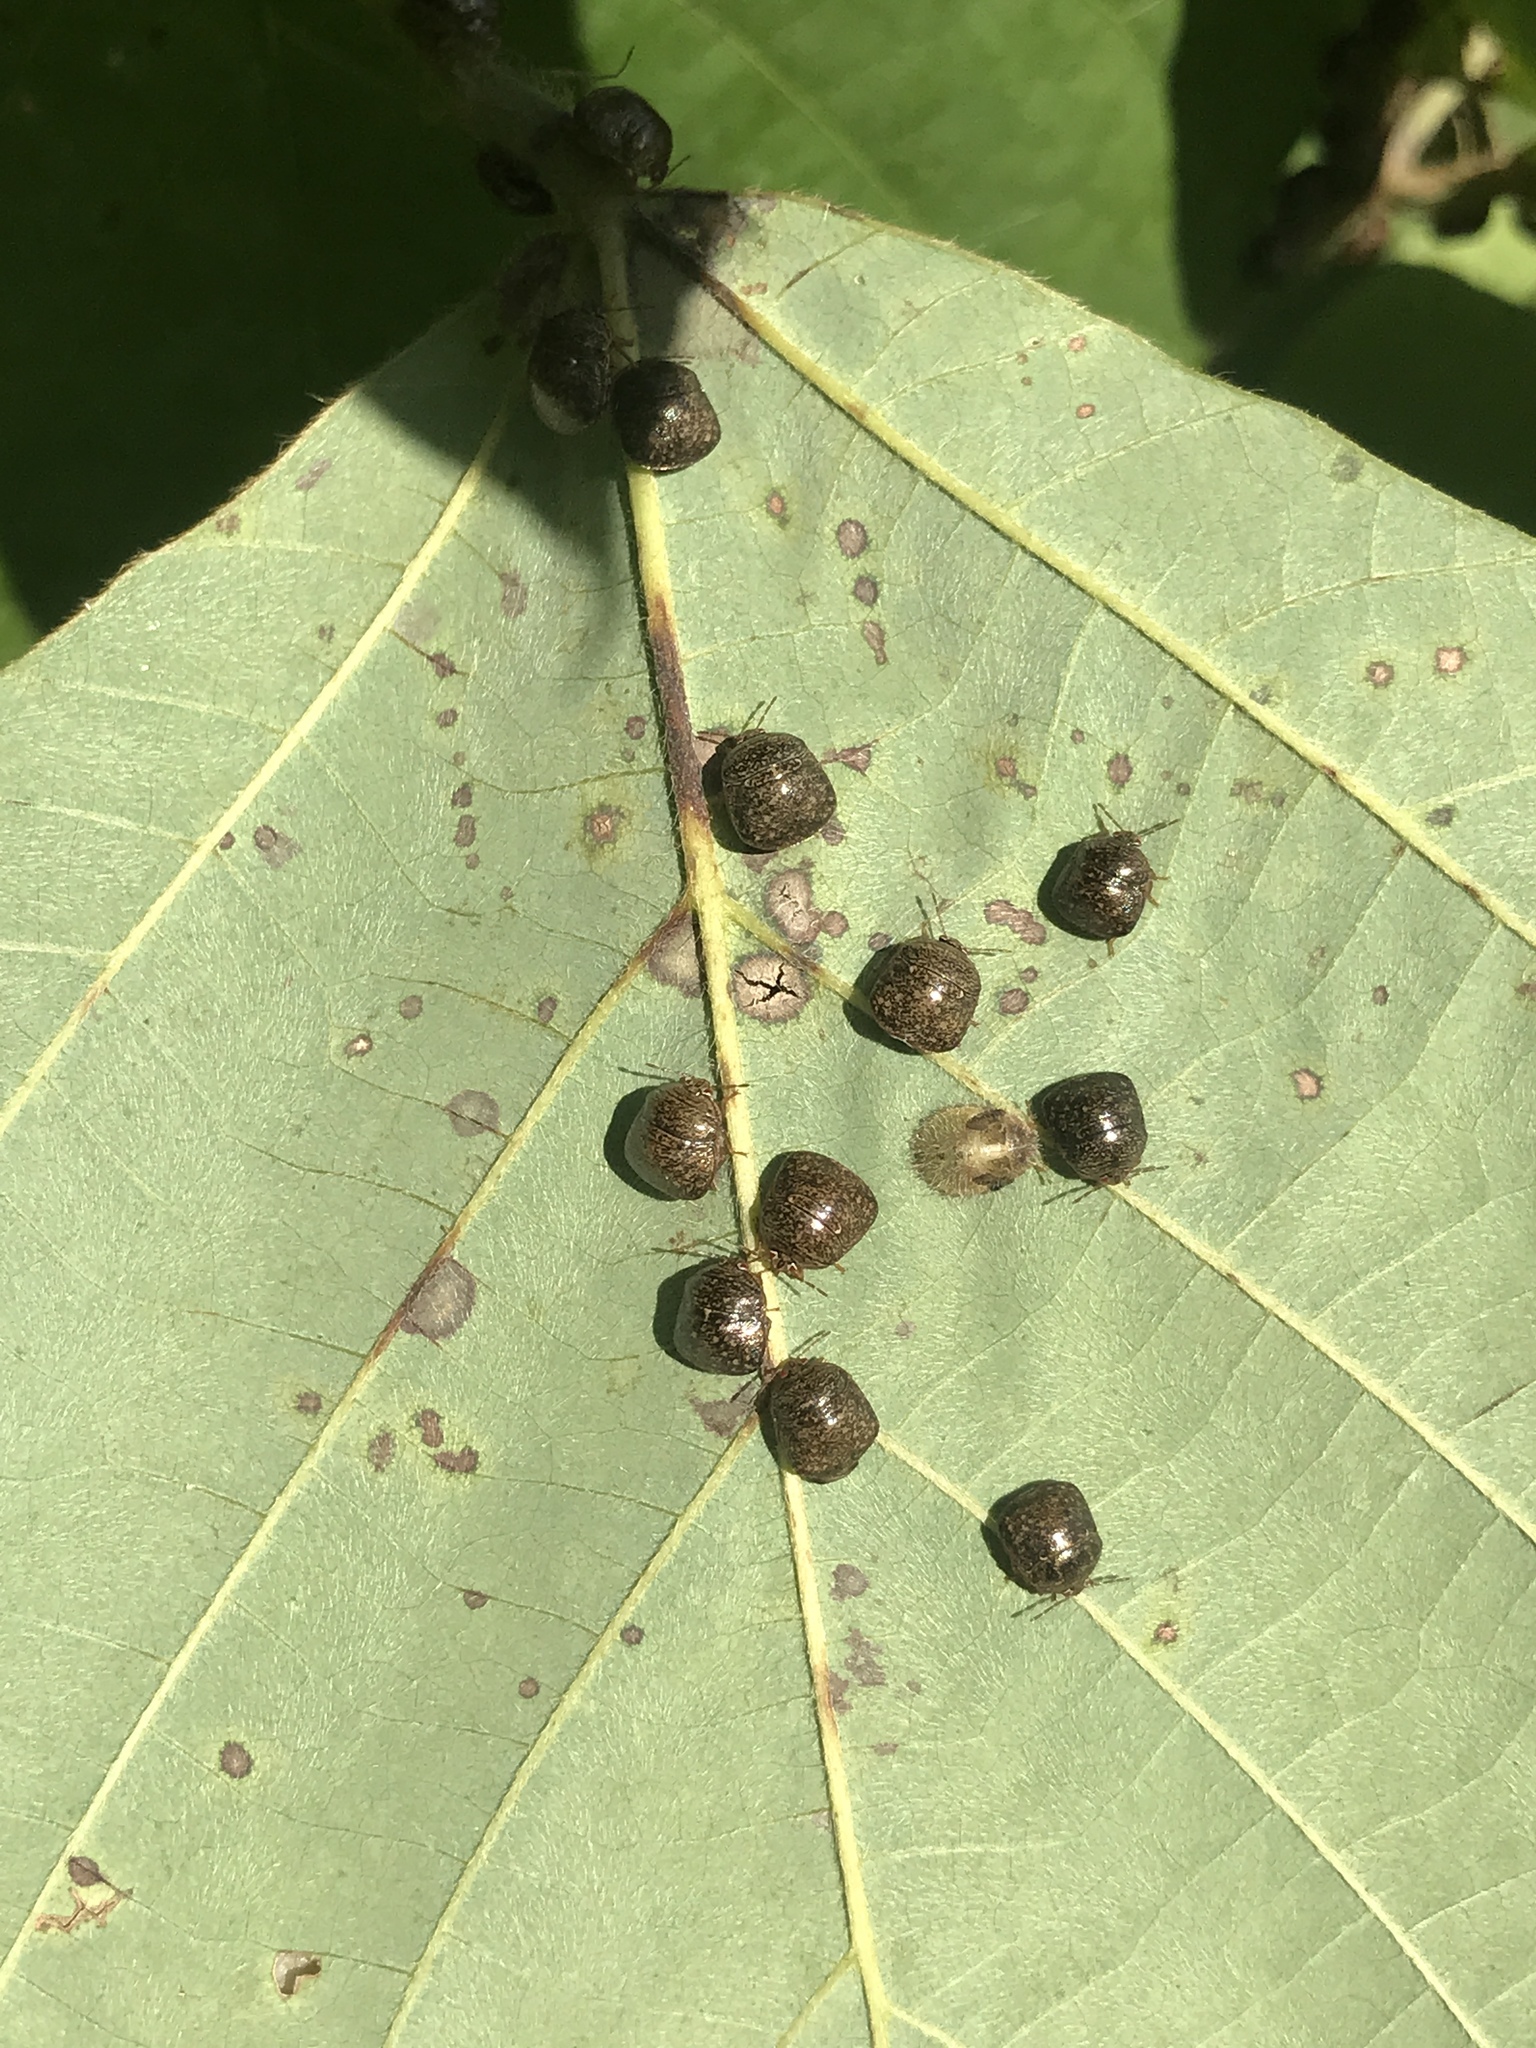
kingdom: Animalia
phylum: Arthropoda
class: Insecta
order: Hemiptera
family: Plataspidae
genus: Megacopta
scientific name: Megacopta cribraria
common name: Bean plataspid
